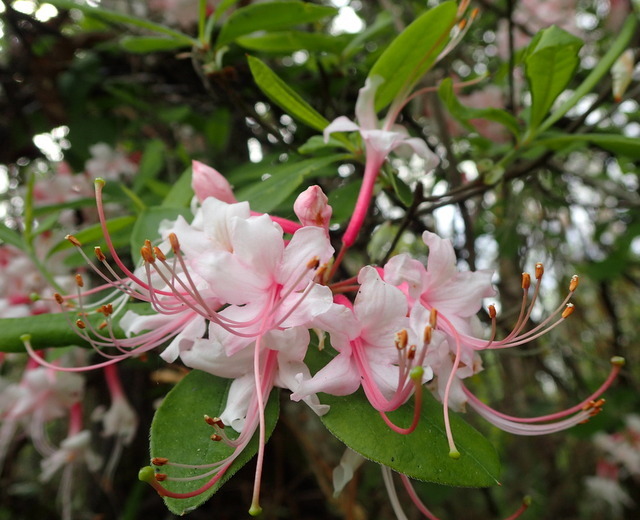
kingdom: Plantae
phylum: Tracheophyta
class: Magnoliopsida
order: Ericales
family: Ericaceae
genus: Rhododendron
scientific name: Rhododendron canescens
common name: Mountain azalea
